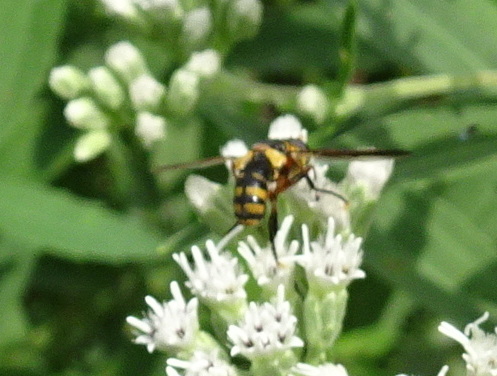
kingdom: Animalia
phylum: Arthropoda
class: Insecta
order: Diptera
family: Tachinidae
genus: Trichopoda
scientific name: Trichopoda plumipes
